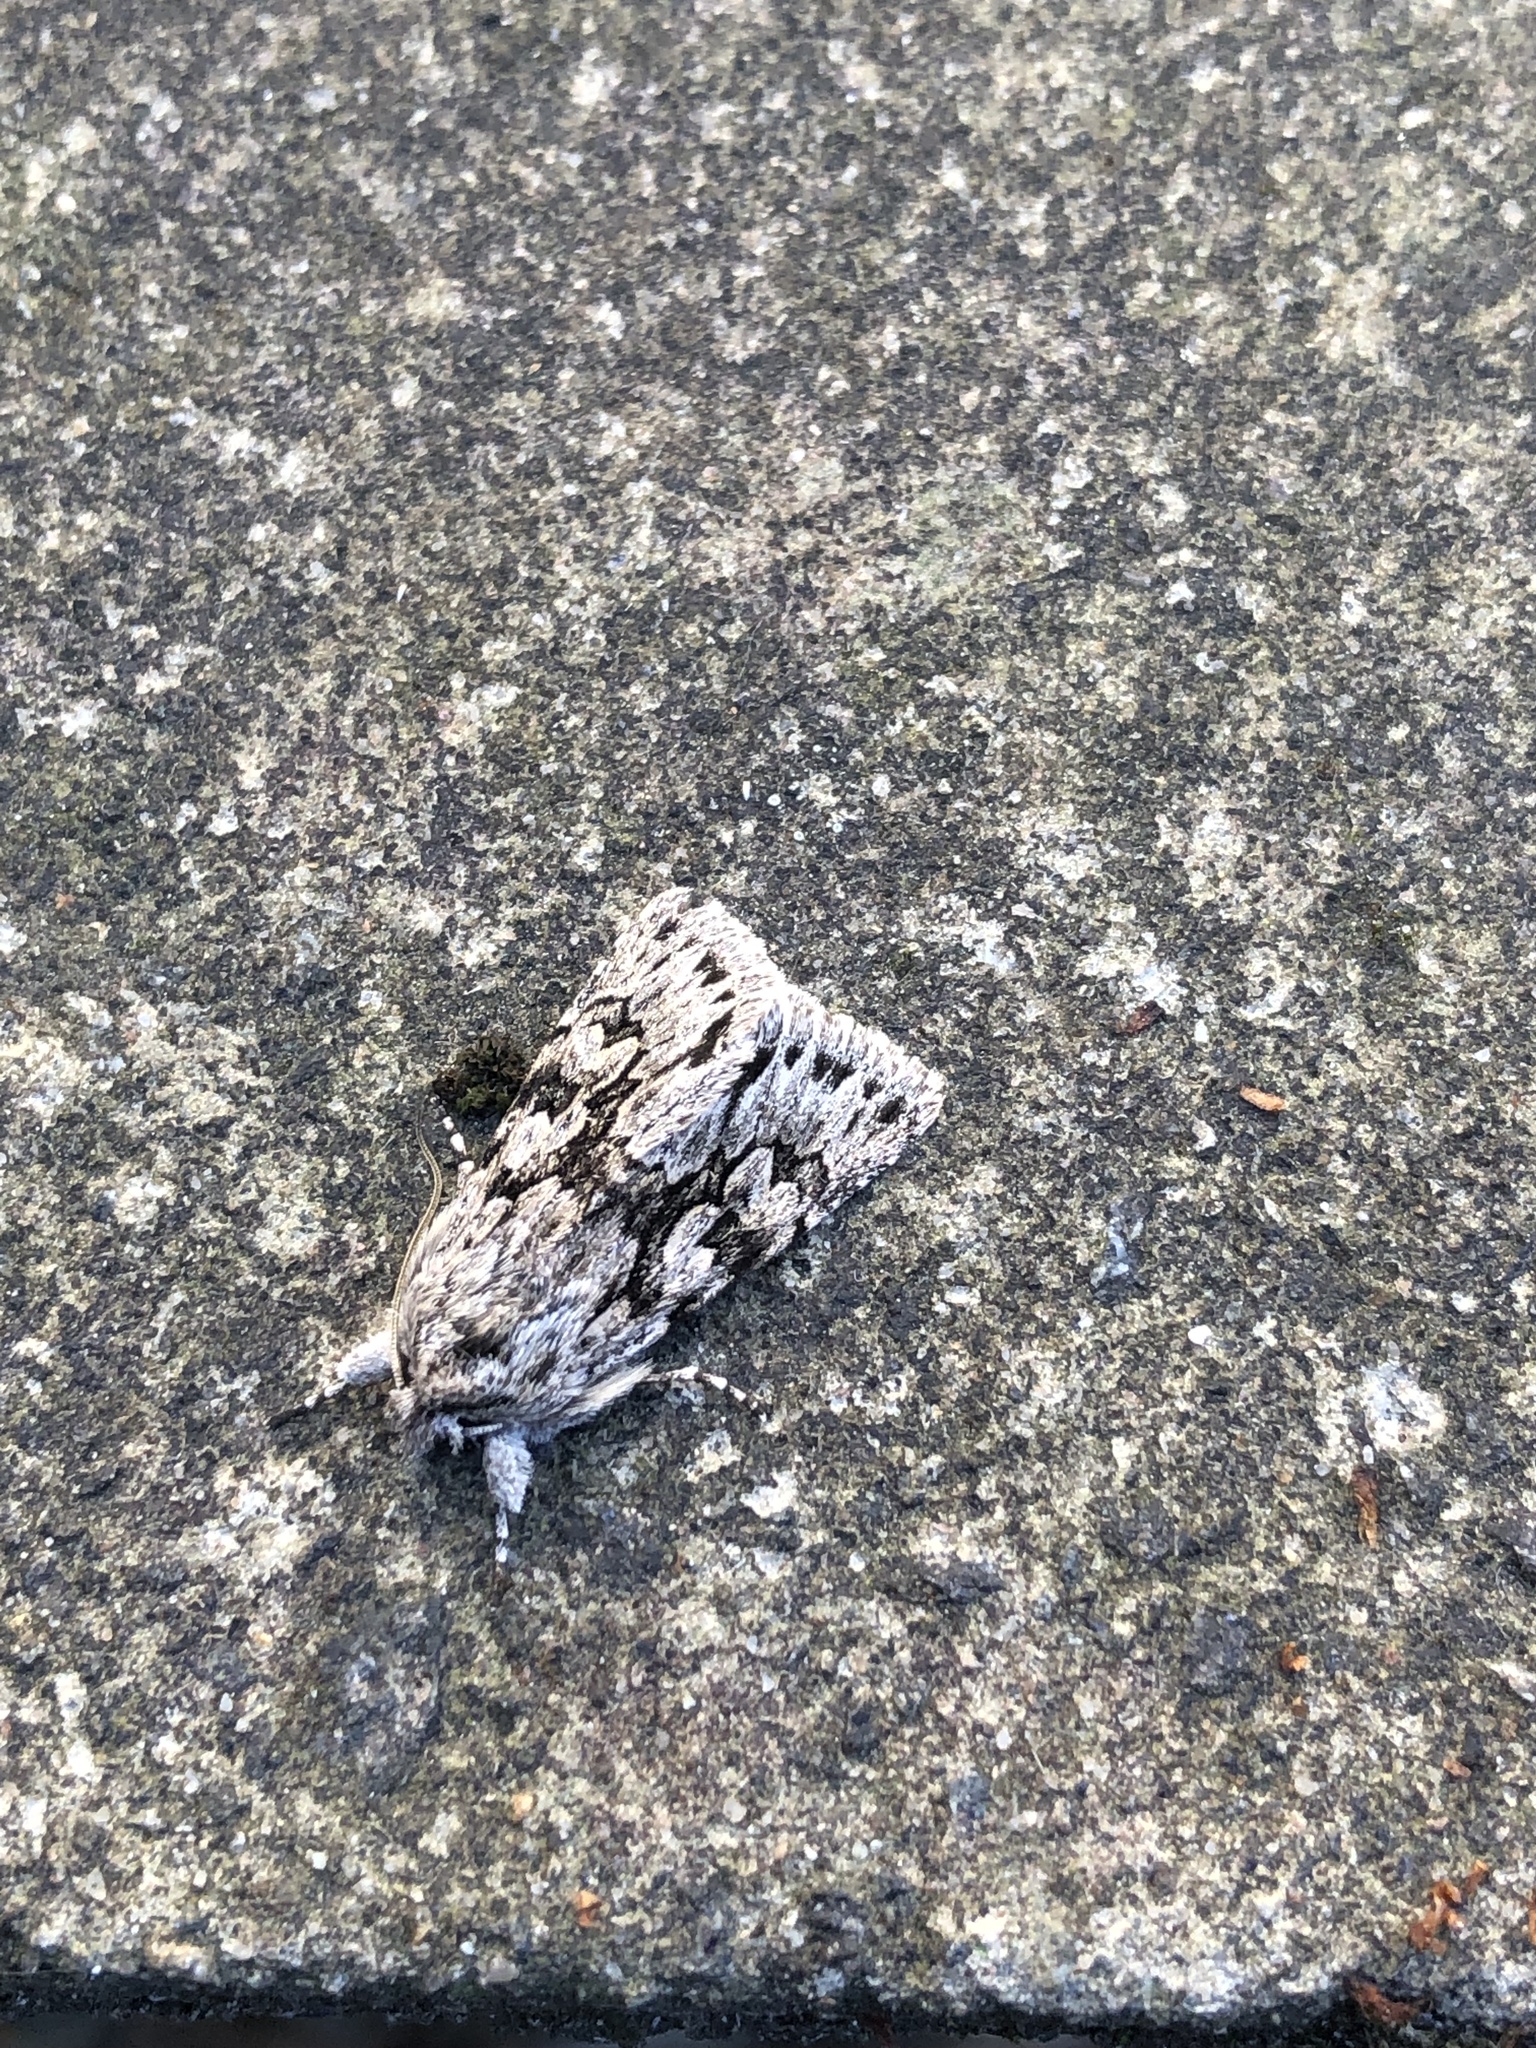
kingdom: Animalia
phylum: Arthropoda
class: Insecta
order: Lepidoptera
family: Noctuidae
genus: Xylocampa
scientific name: Xylocampa areola
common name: Early grey
